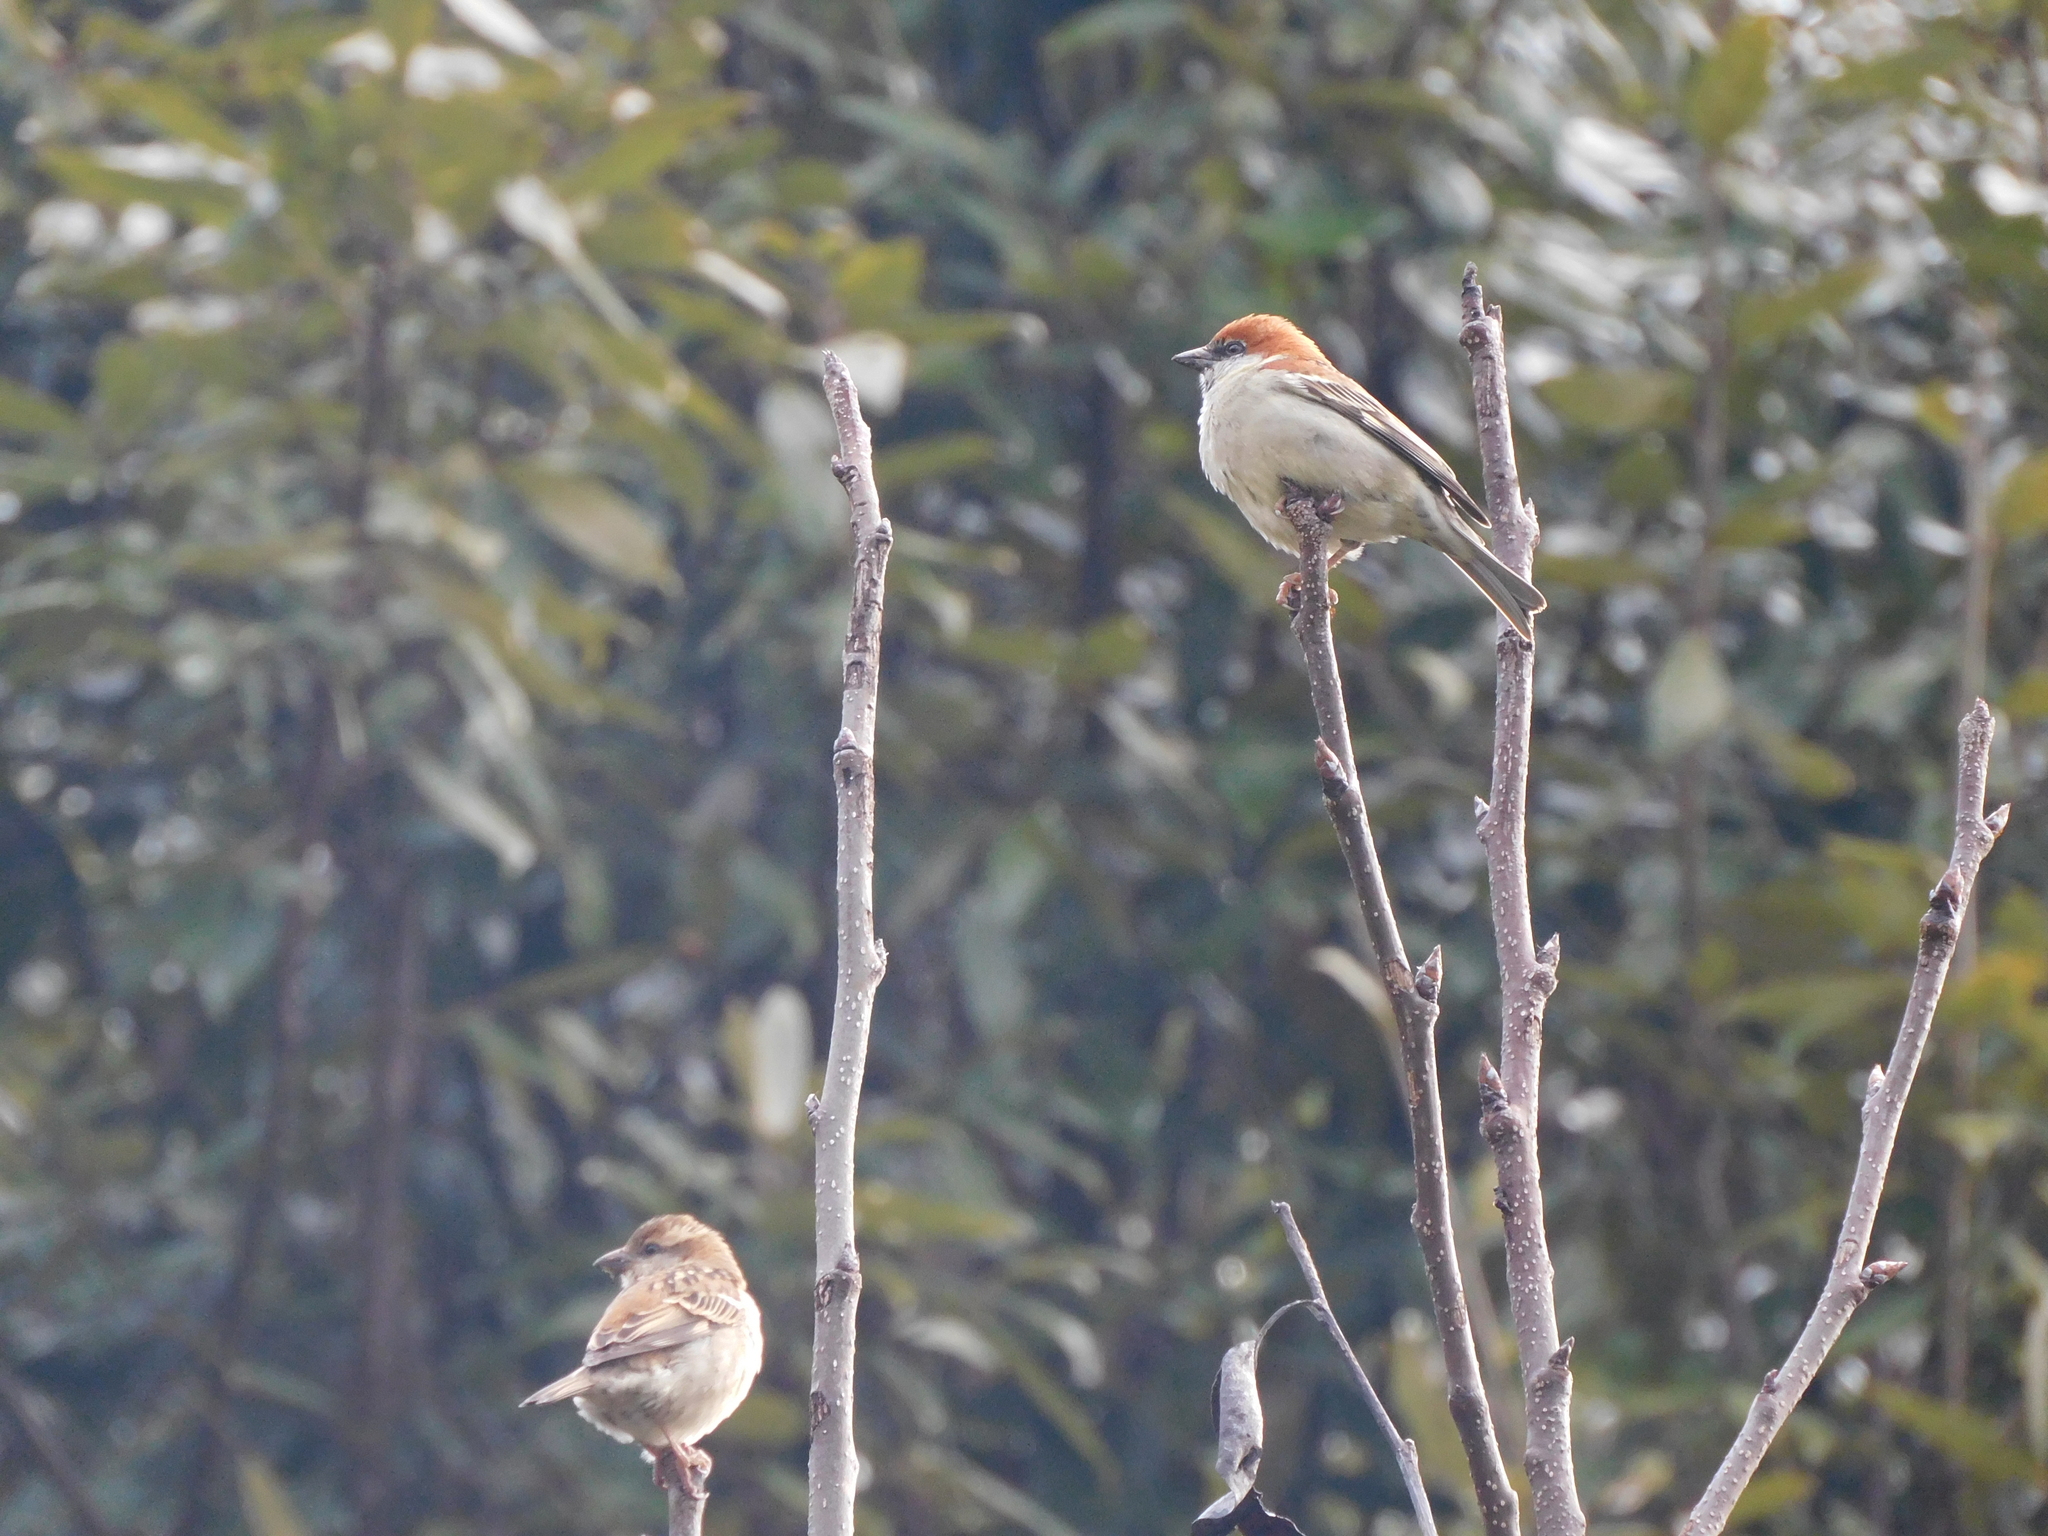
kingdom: Animalia
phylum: Chordata
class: Aves
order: Passeriformes
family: Passeridae
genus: Passer
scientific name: Passer cinnamomeus
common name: Russet sparrow
